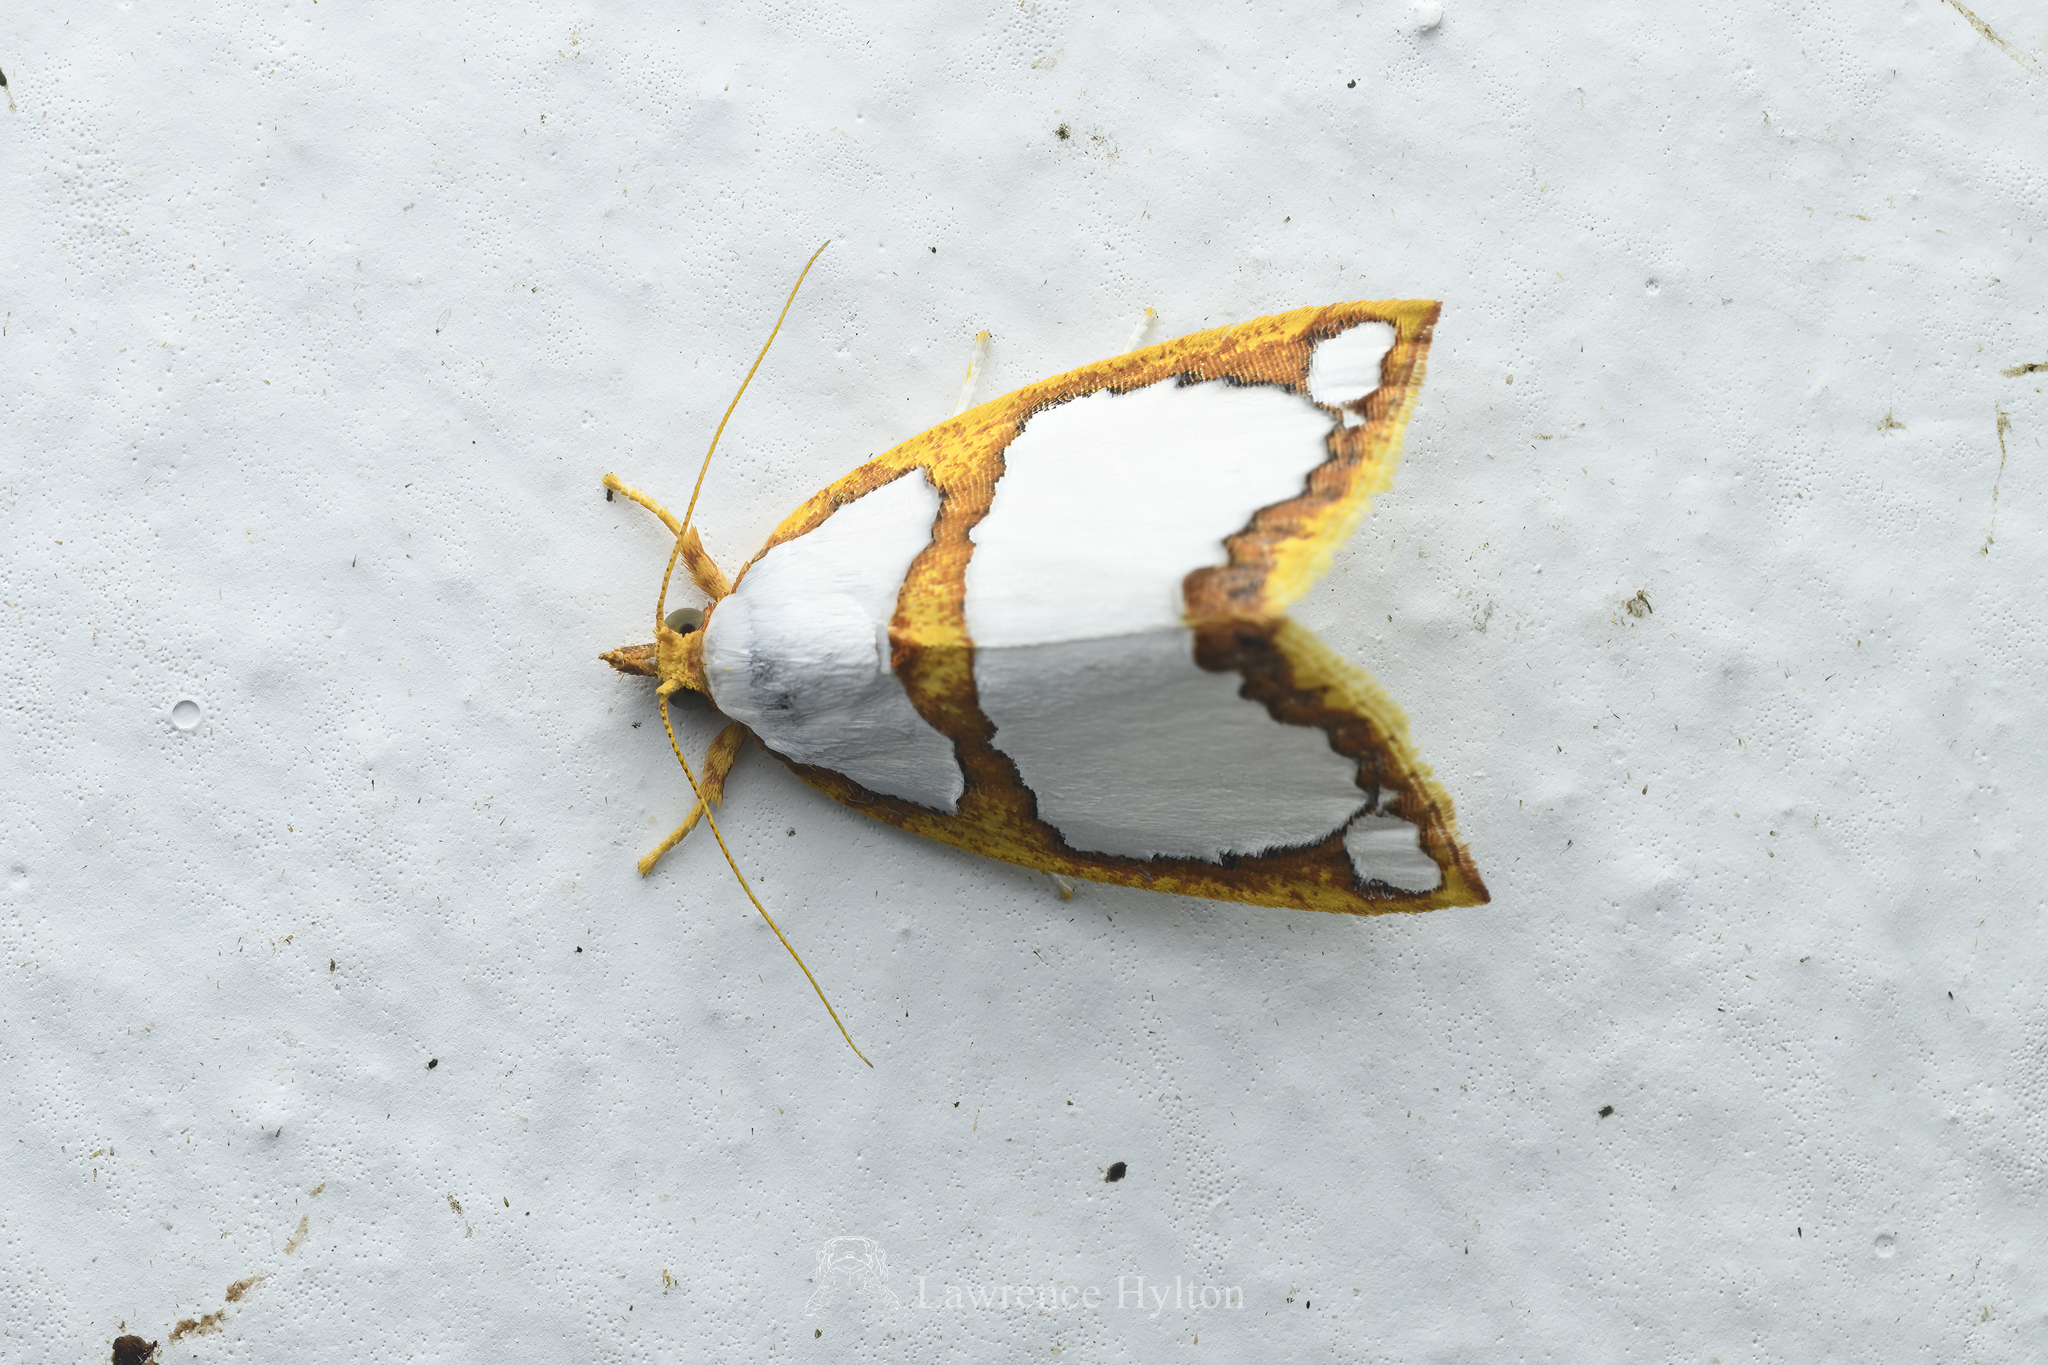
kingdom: Animalia
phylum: Arthropoda
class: Insecta
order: Lepidoptera
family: Nolidae
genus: Titulcia
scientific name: Titulcia confictella
